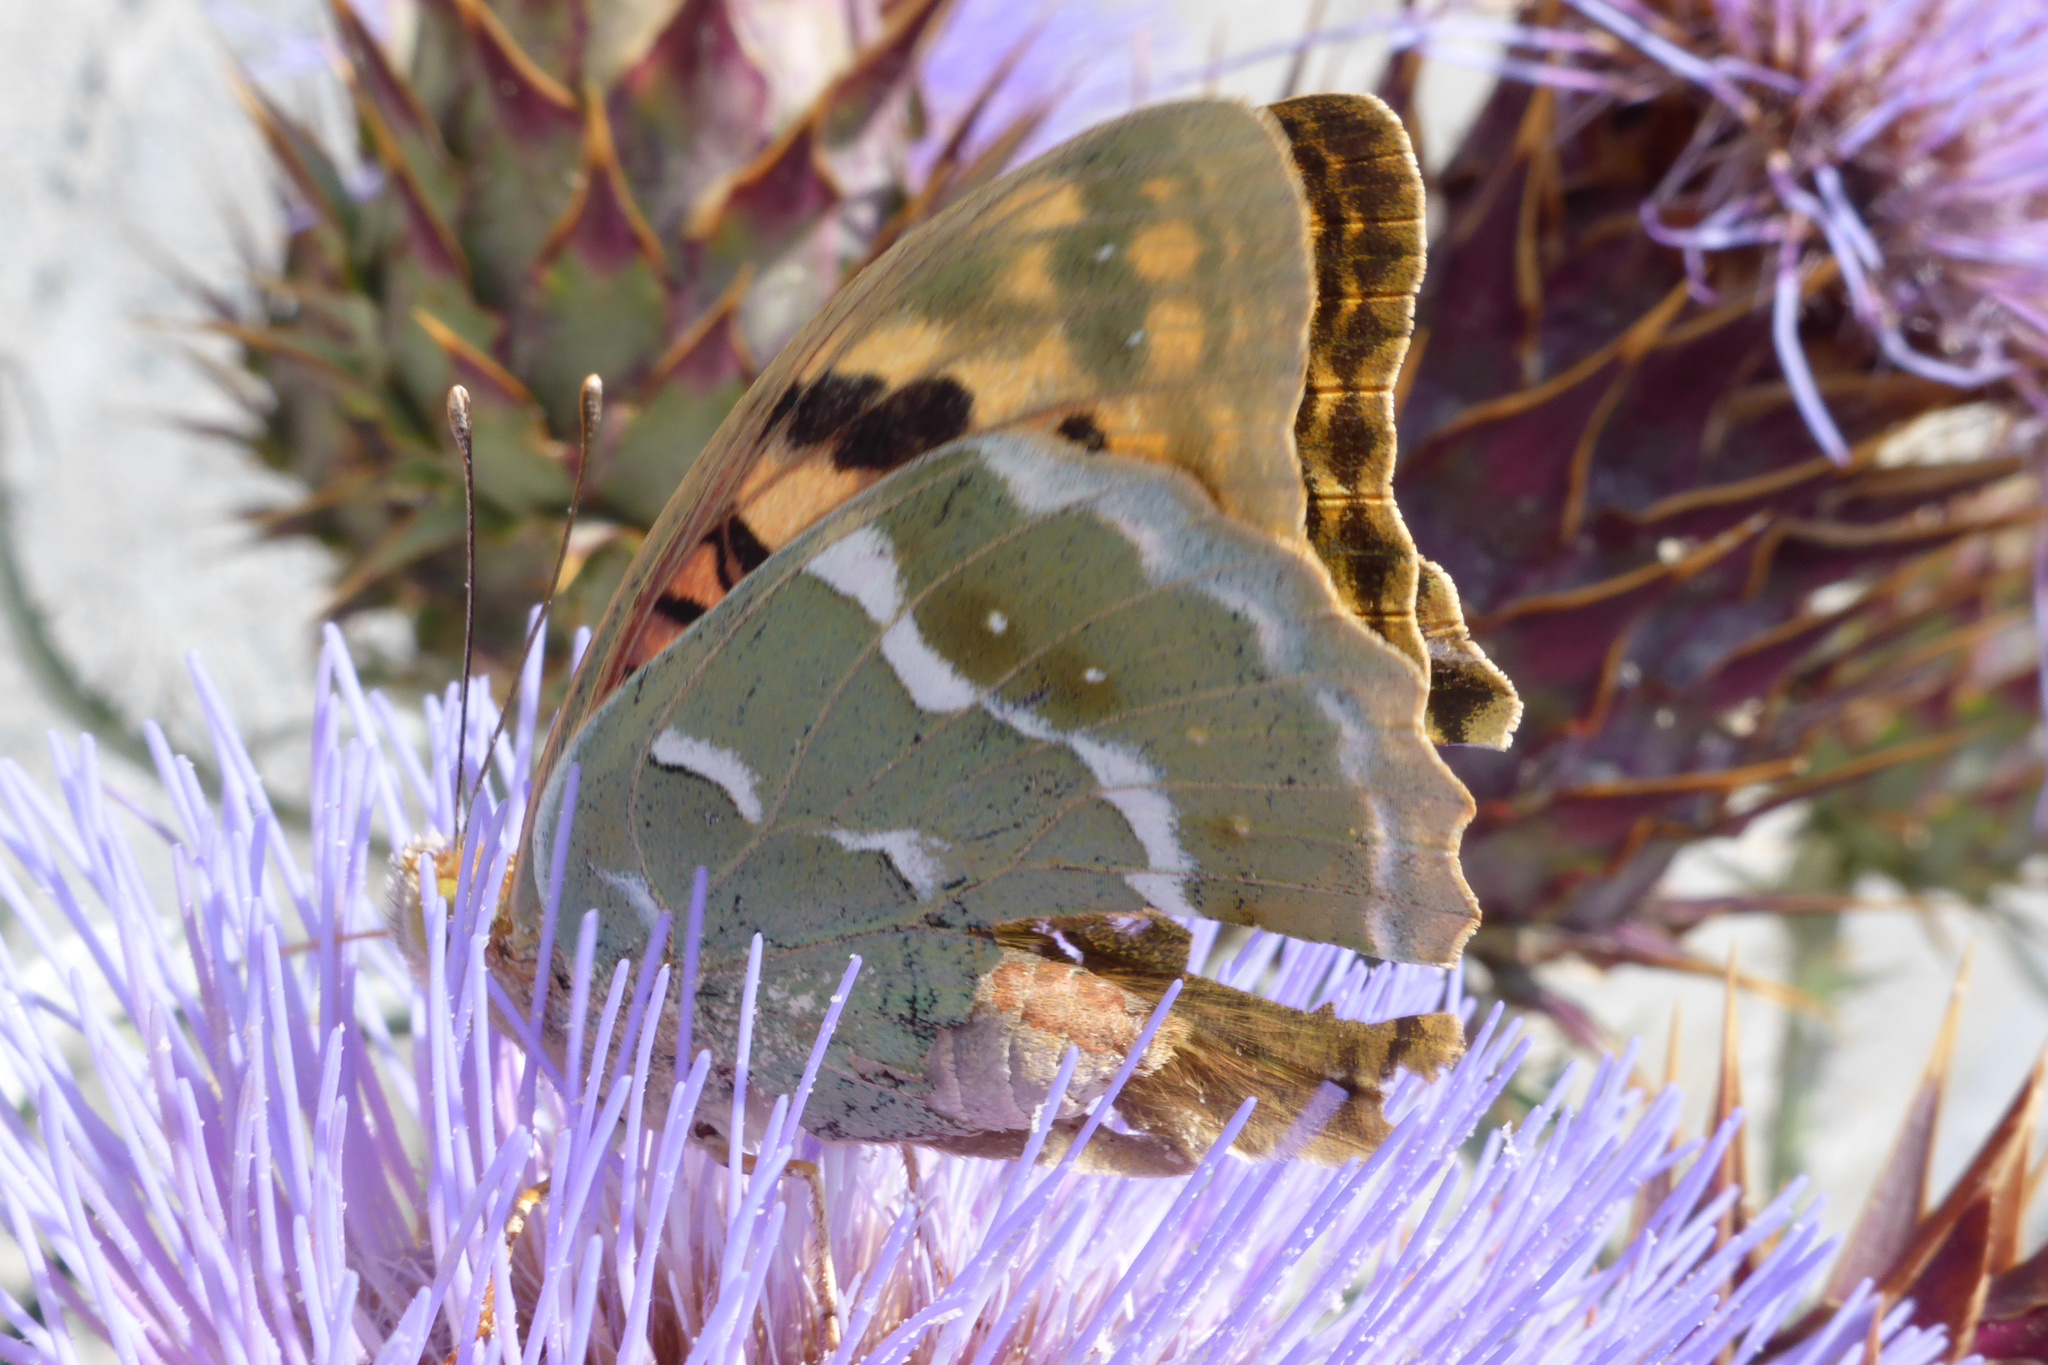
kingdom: Animalia
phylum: Arthropoda
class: Insecta
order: Lepidoptera
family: Nymphalidae
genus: Damora
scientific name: Damora pandora
